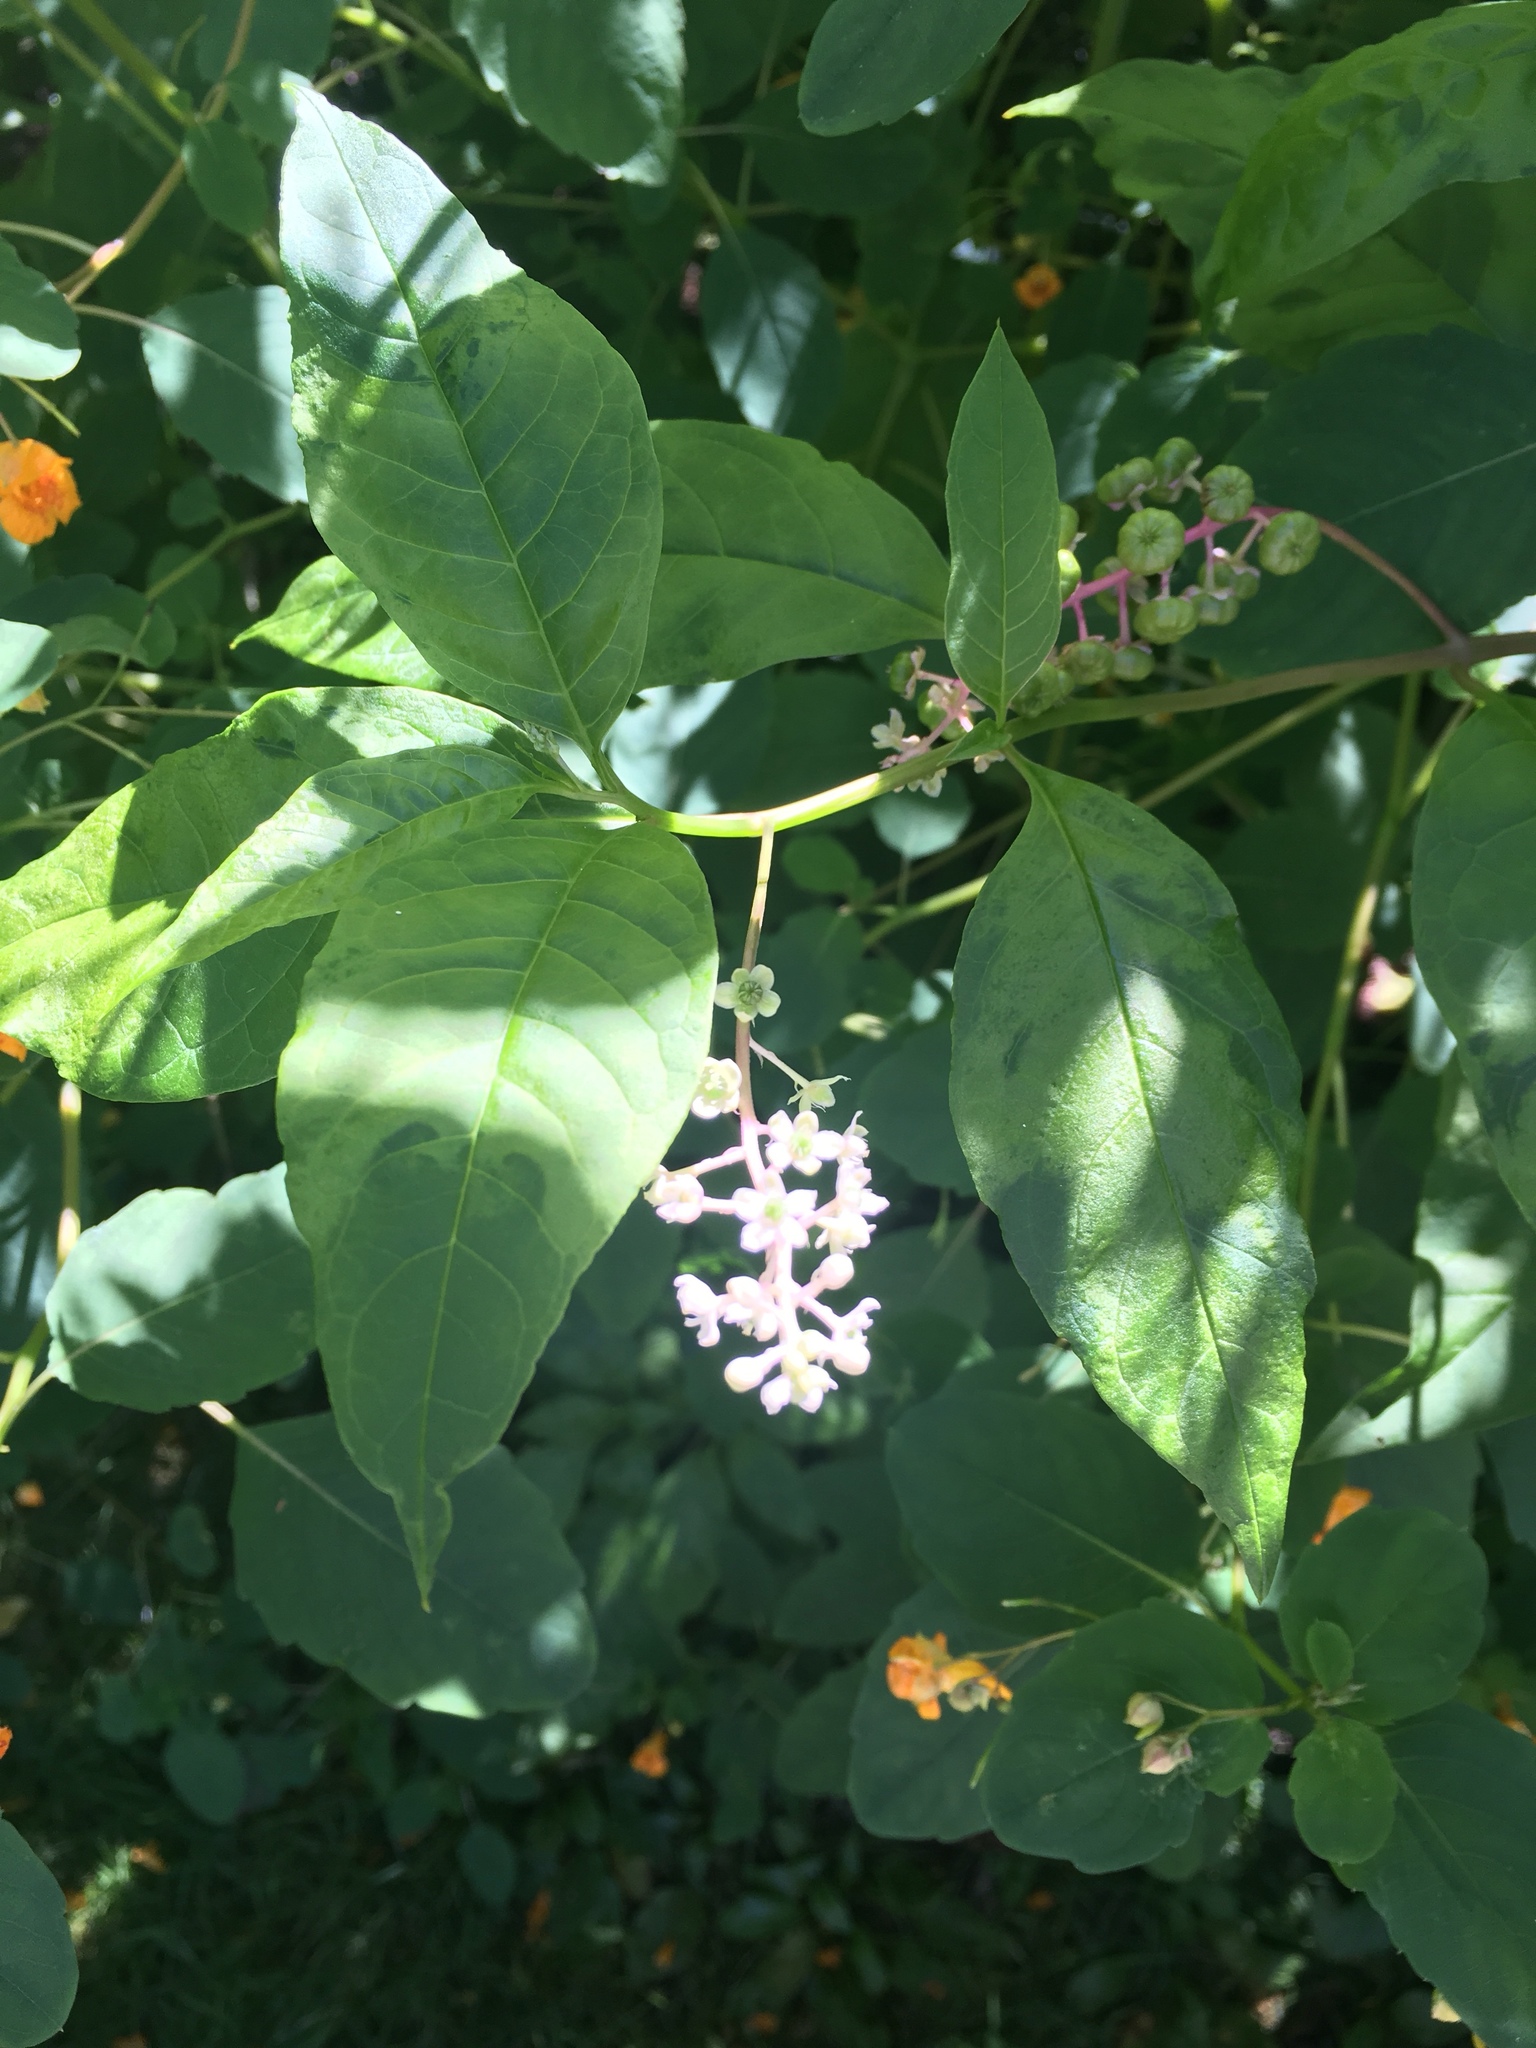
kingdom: Plantae
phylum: Tracheophyta
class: Magnoliopsida
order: Caryophyllales
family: Phytolaccaceae
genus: Phytolacca
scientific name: Phytolacca americana
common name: American pokeweed
